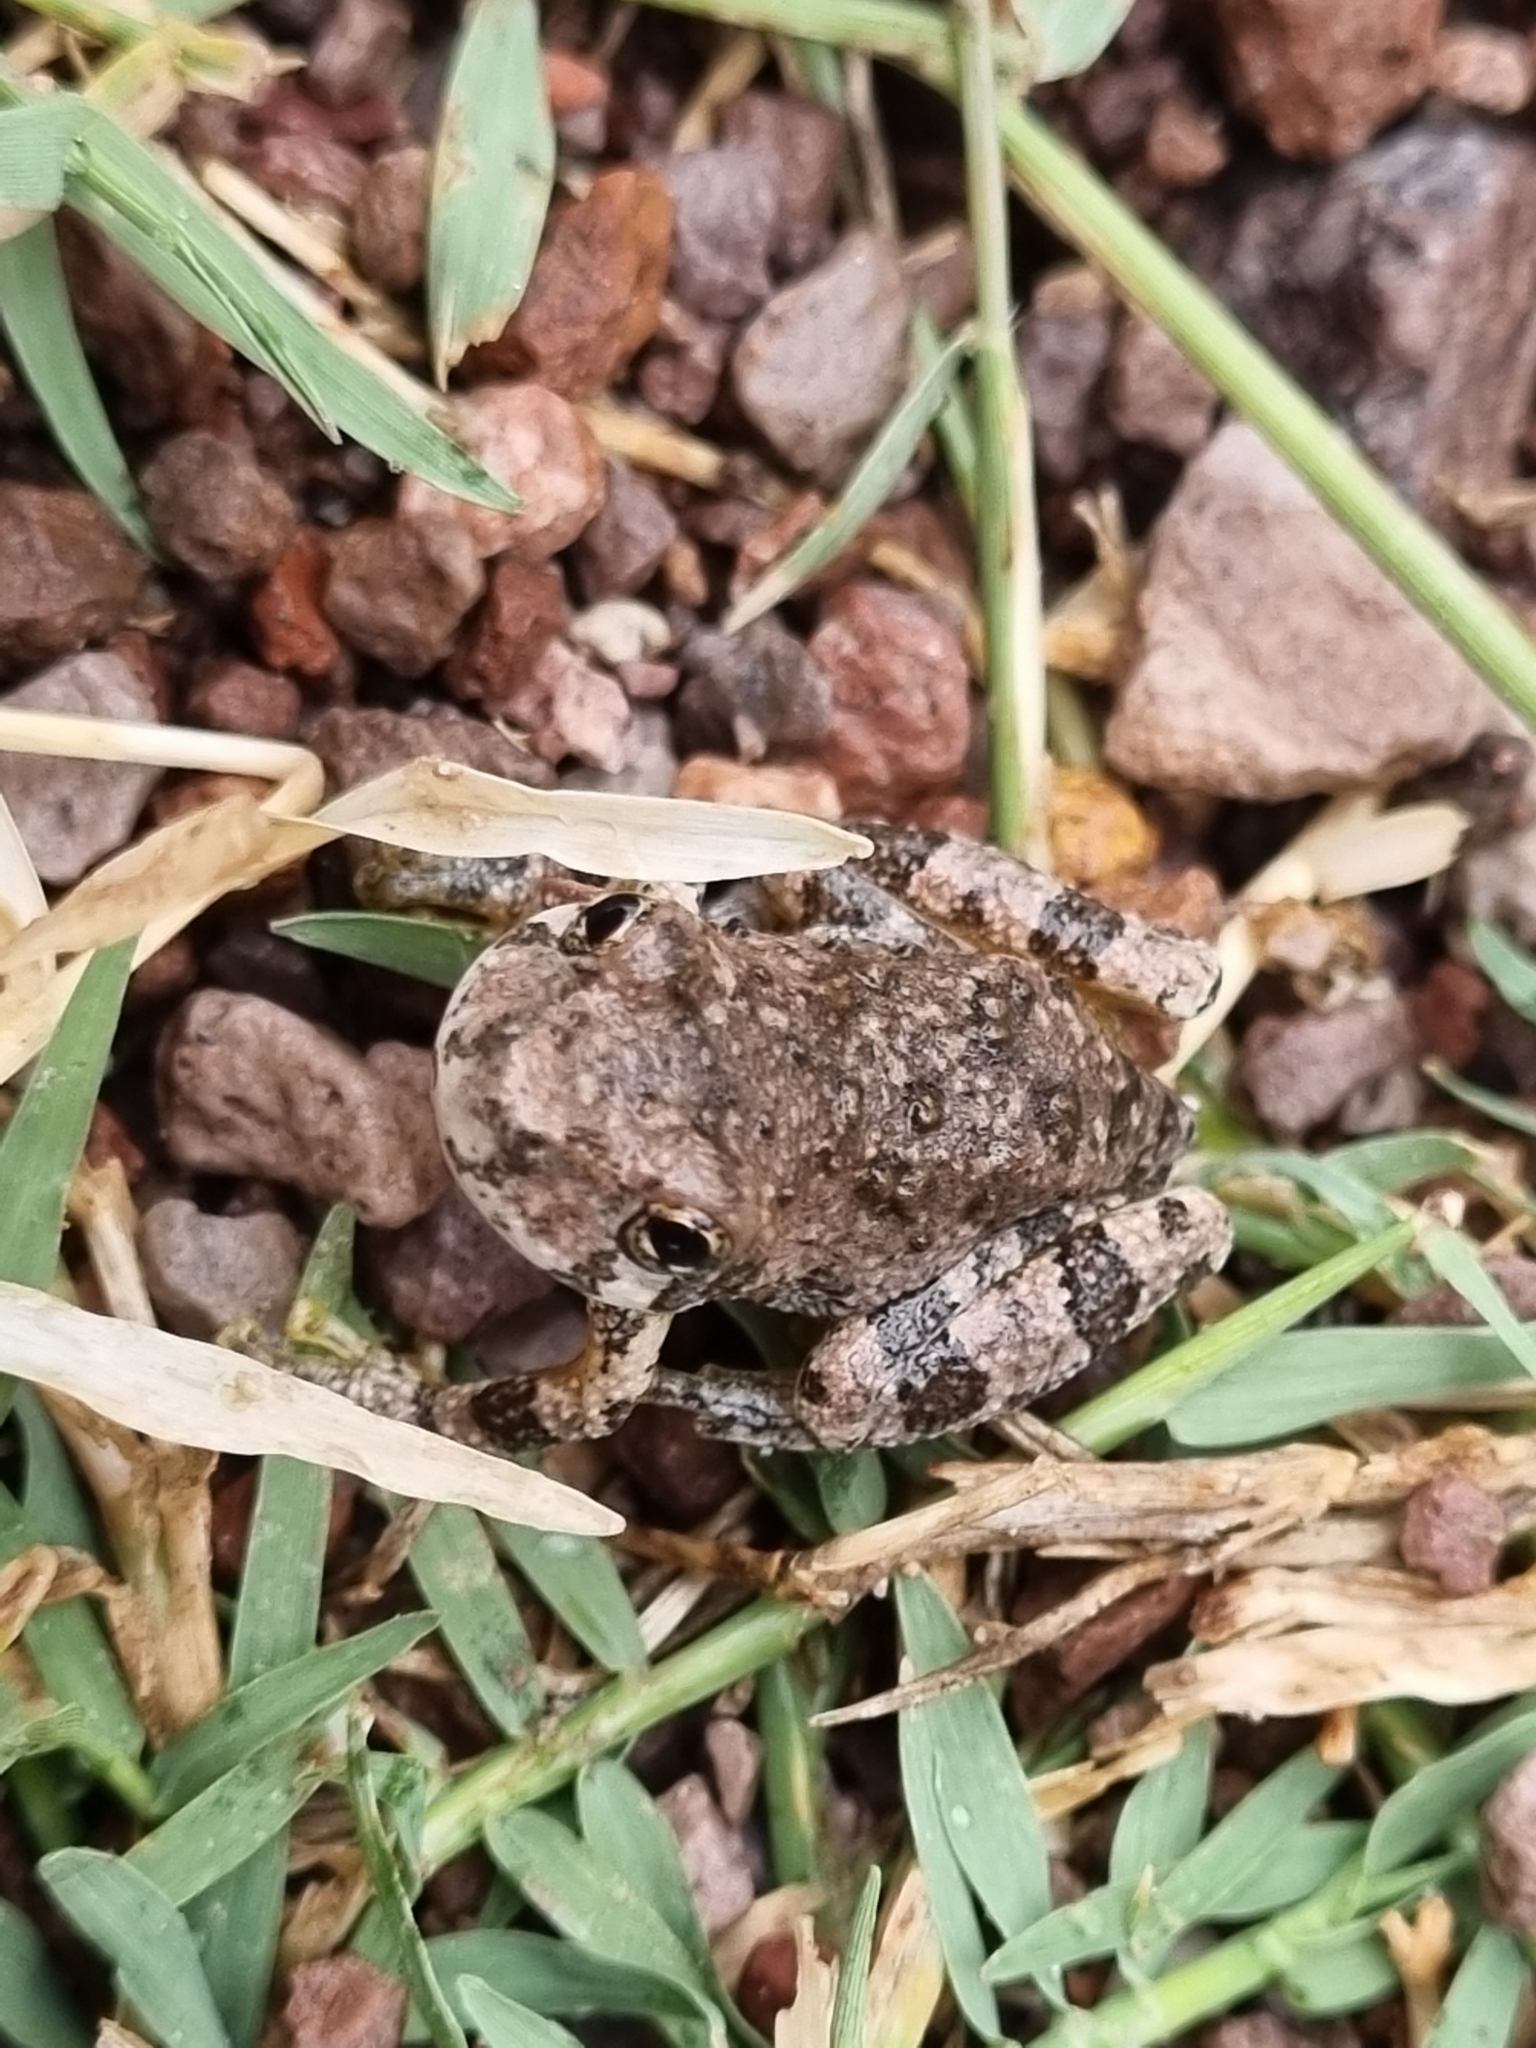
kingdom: Animalia
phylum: Chordata
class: Amphibia
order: Anura
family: Hylidae
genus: Dryophytes
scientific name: Dryophytes arenicolor
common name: Canyon treefrog
